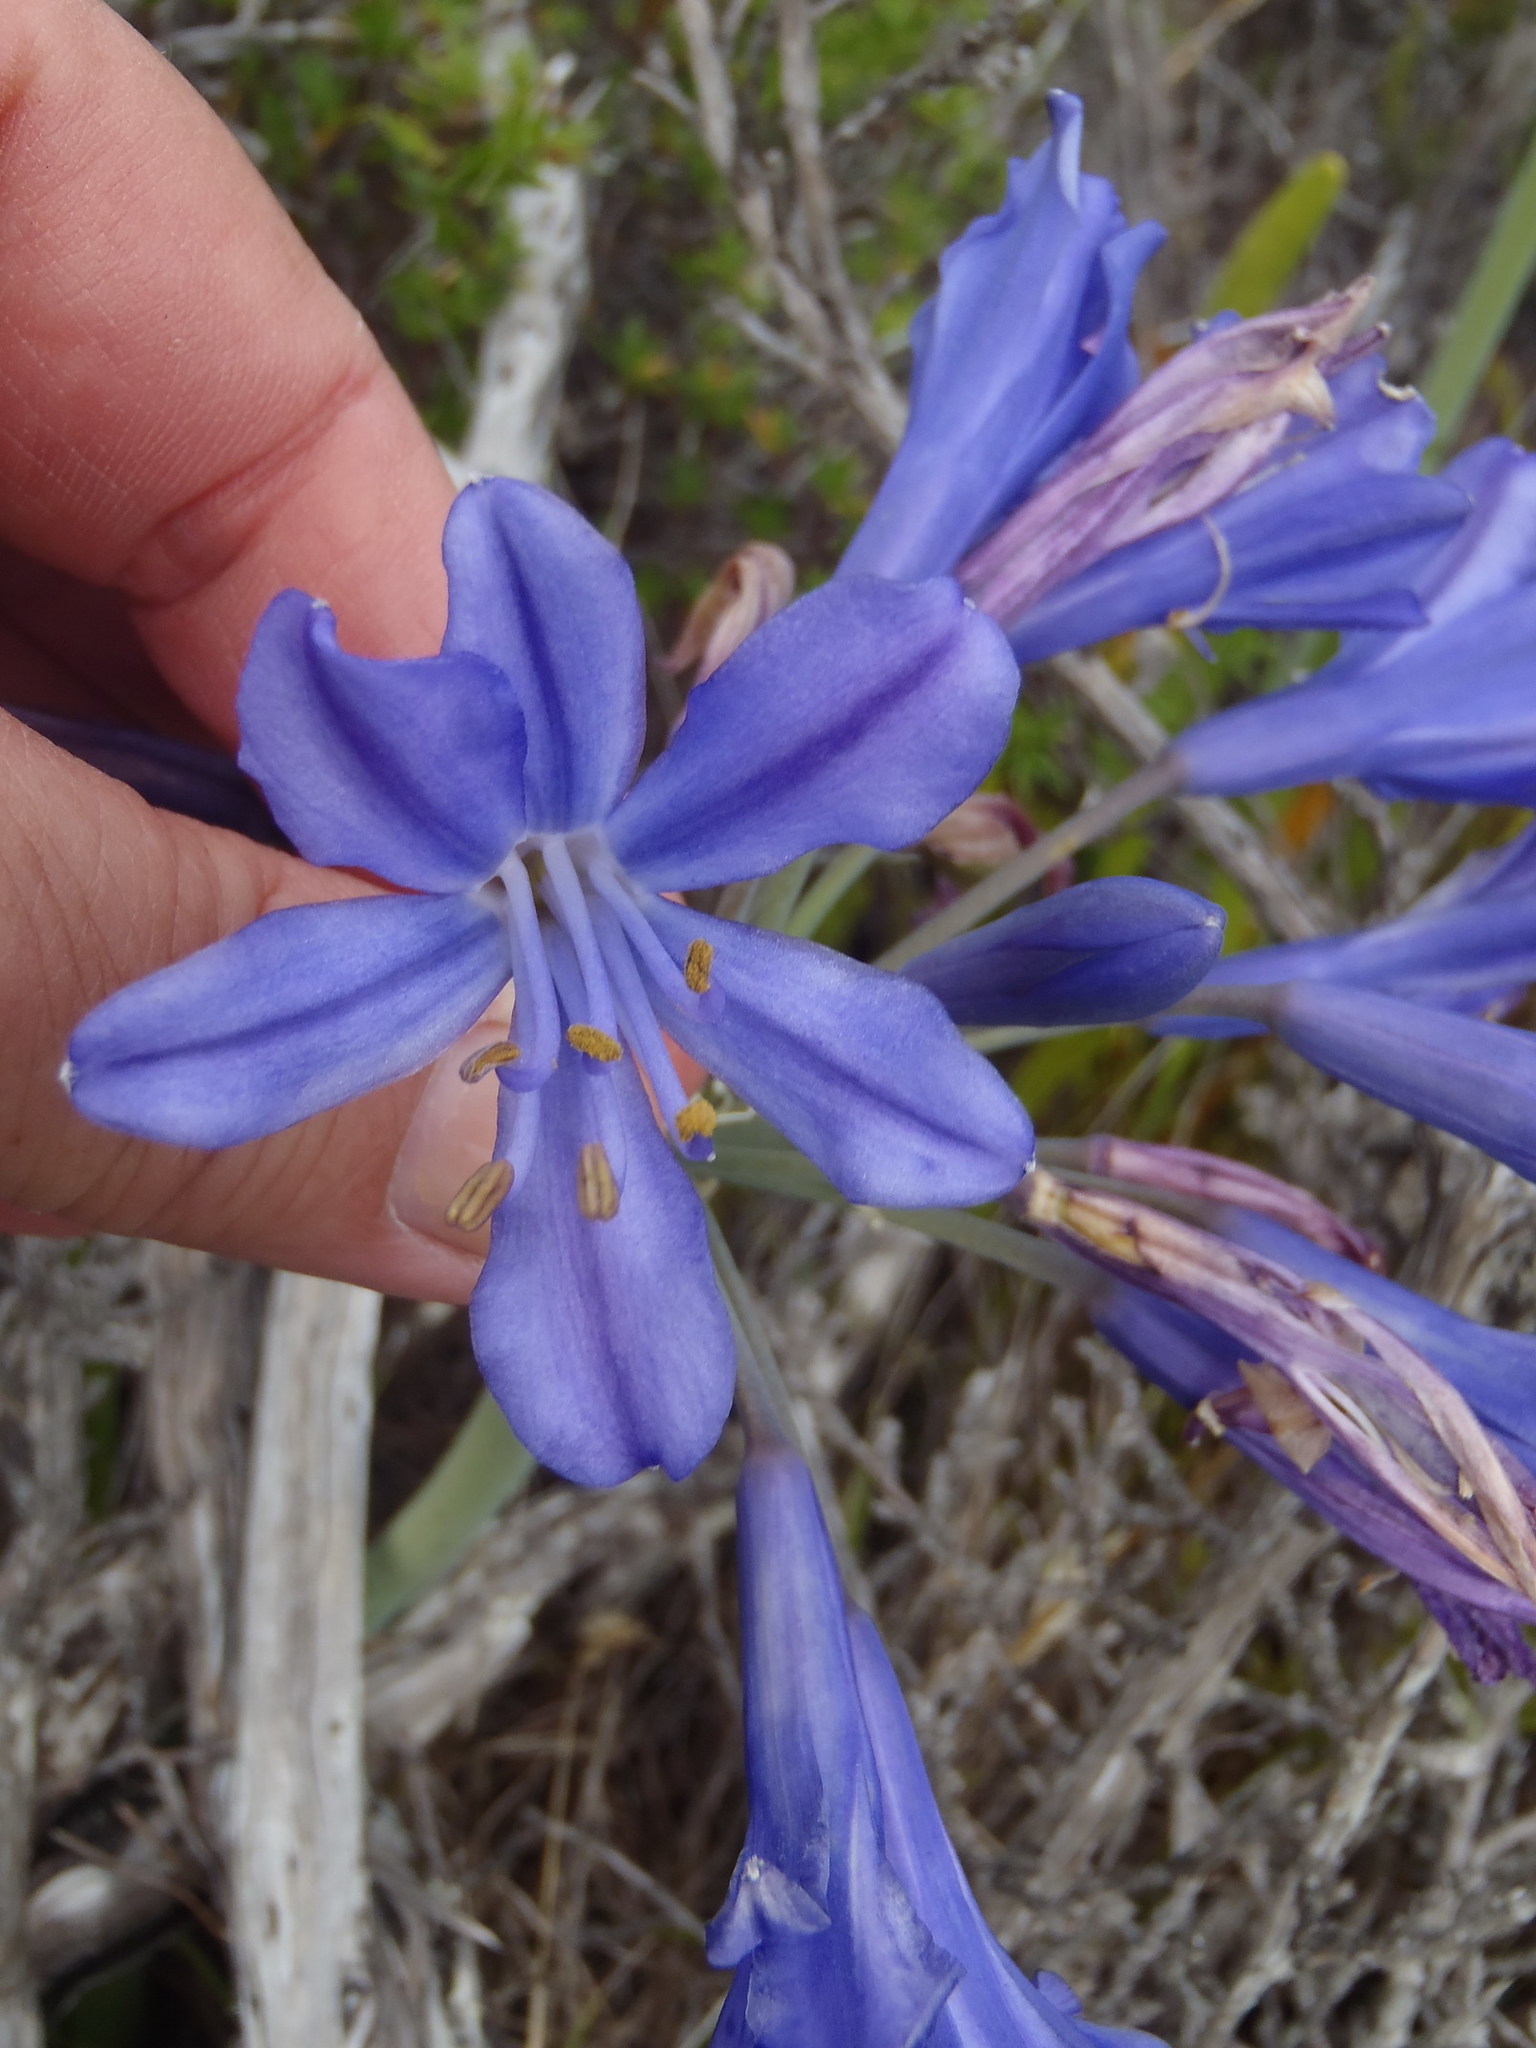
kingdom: Plantae
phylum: Tracheophyta
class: Liliopsida
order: Asparagales
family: Amaryllidaceae
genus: Agapanthus
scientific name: Agapanthus africanus
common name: Lily-of-the-nile
